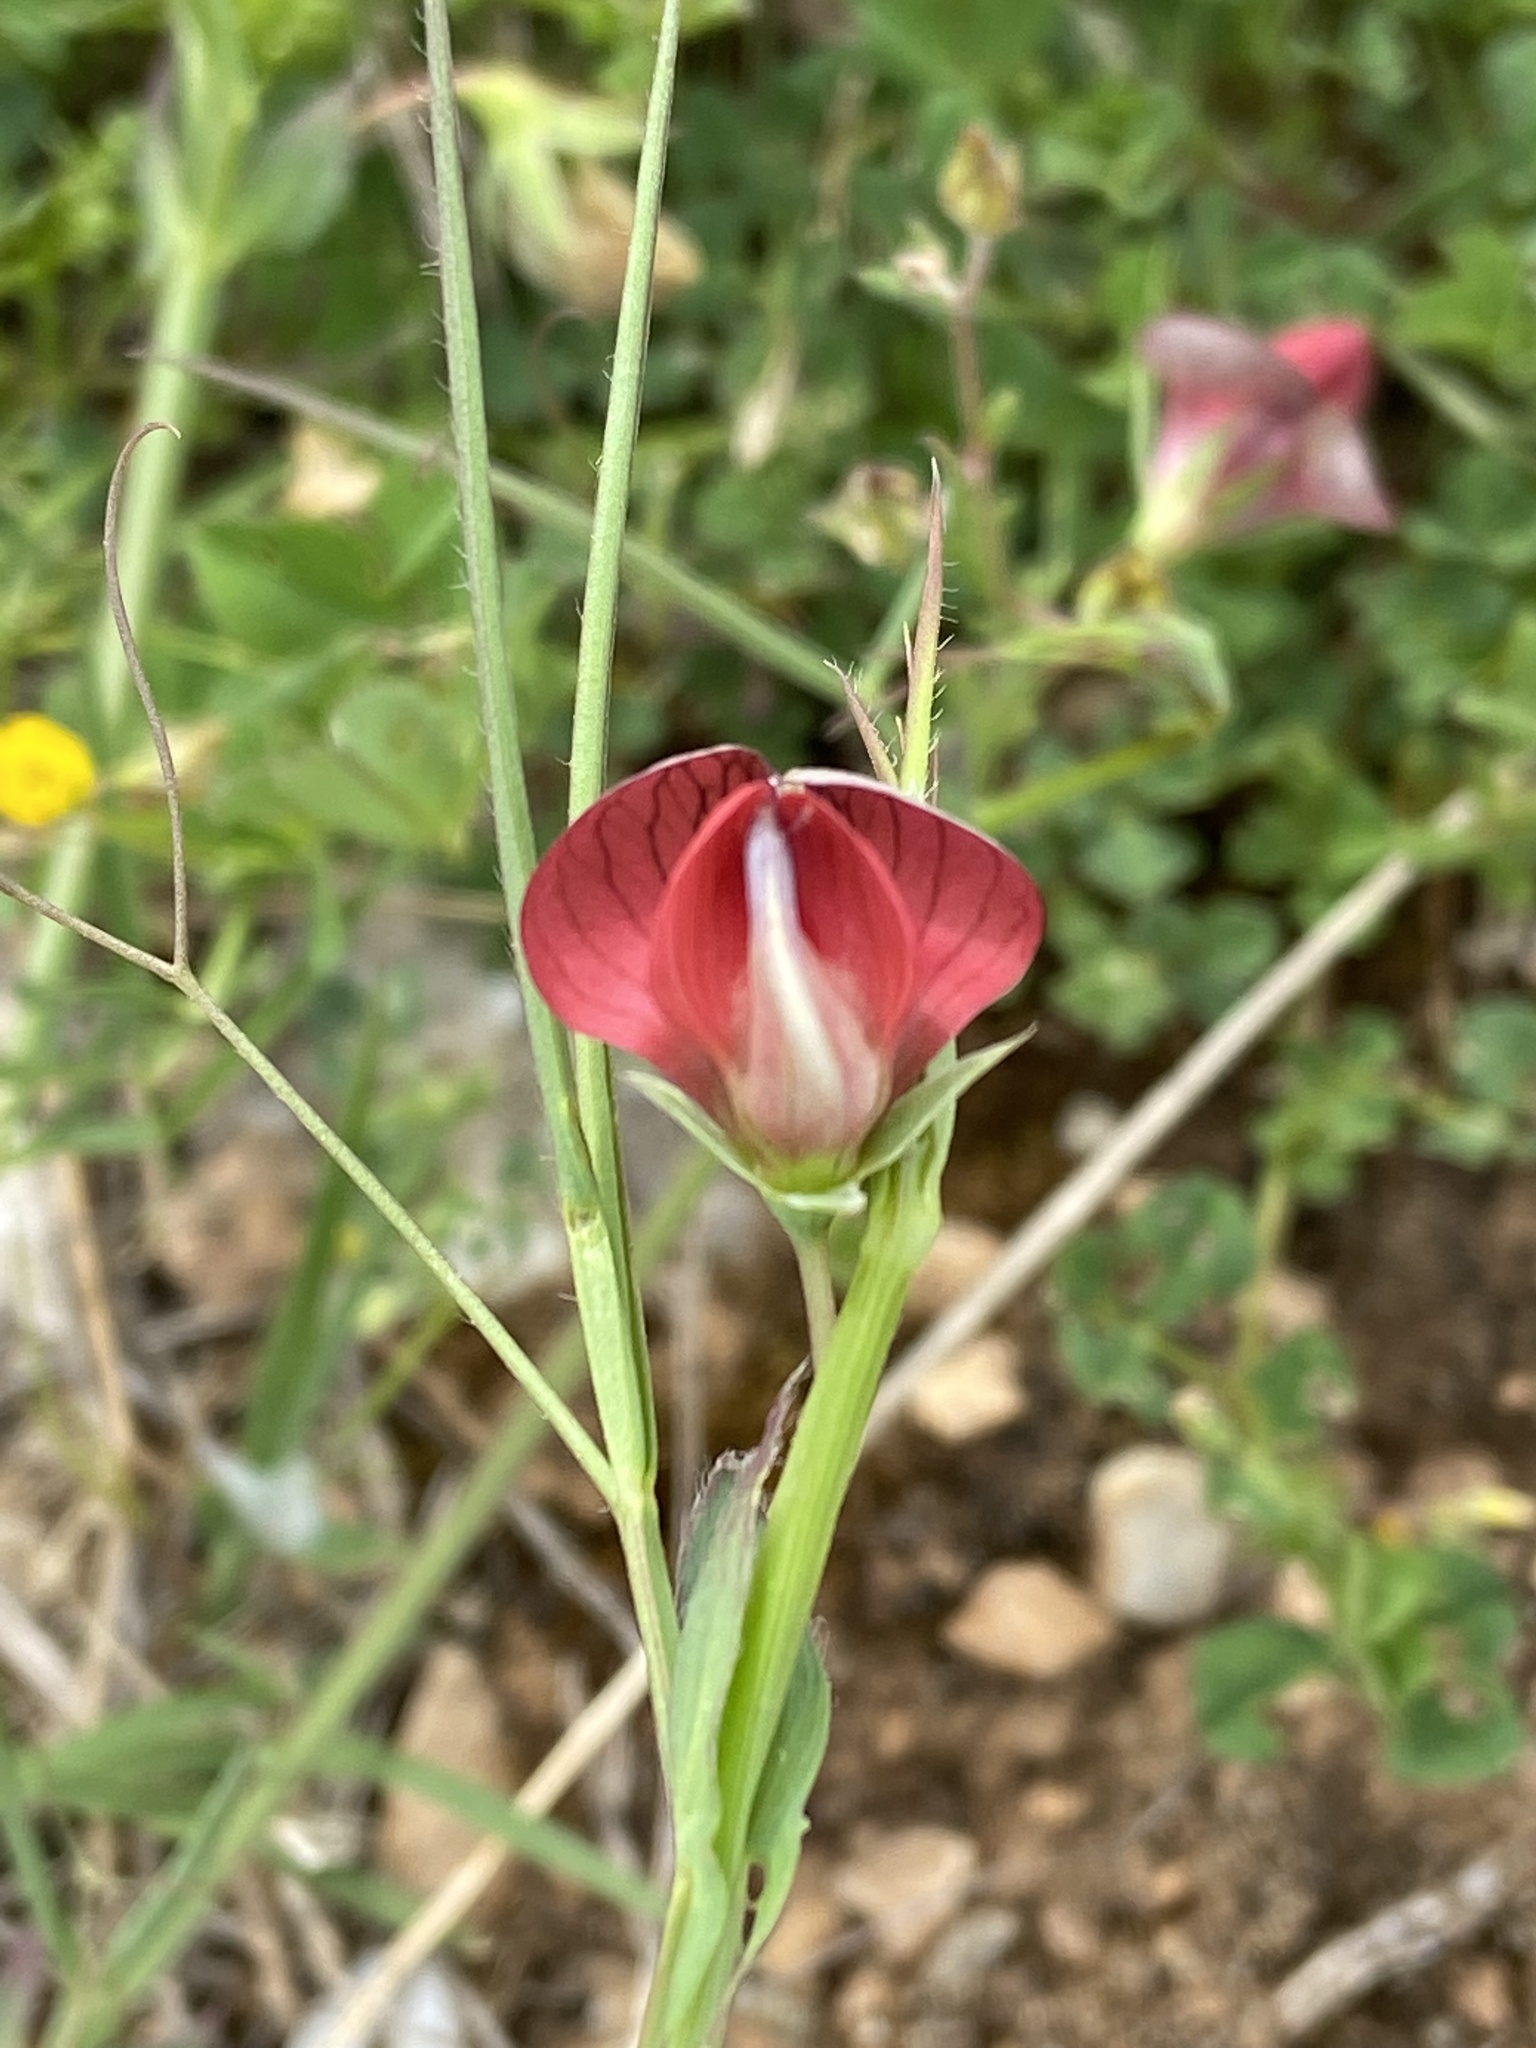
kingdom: Plantae
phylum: Tracheophyta
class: Magnoliopsida
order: Fabales
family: Fabaceae
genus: Lathyrus
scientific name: Lathyrus cicera
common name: Red vetchling
